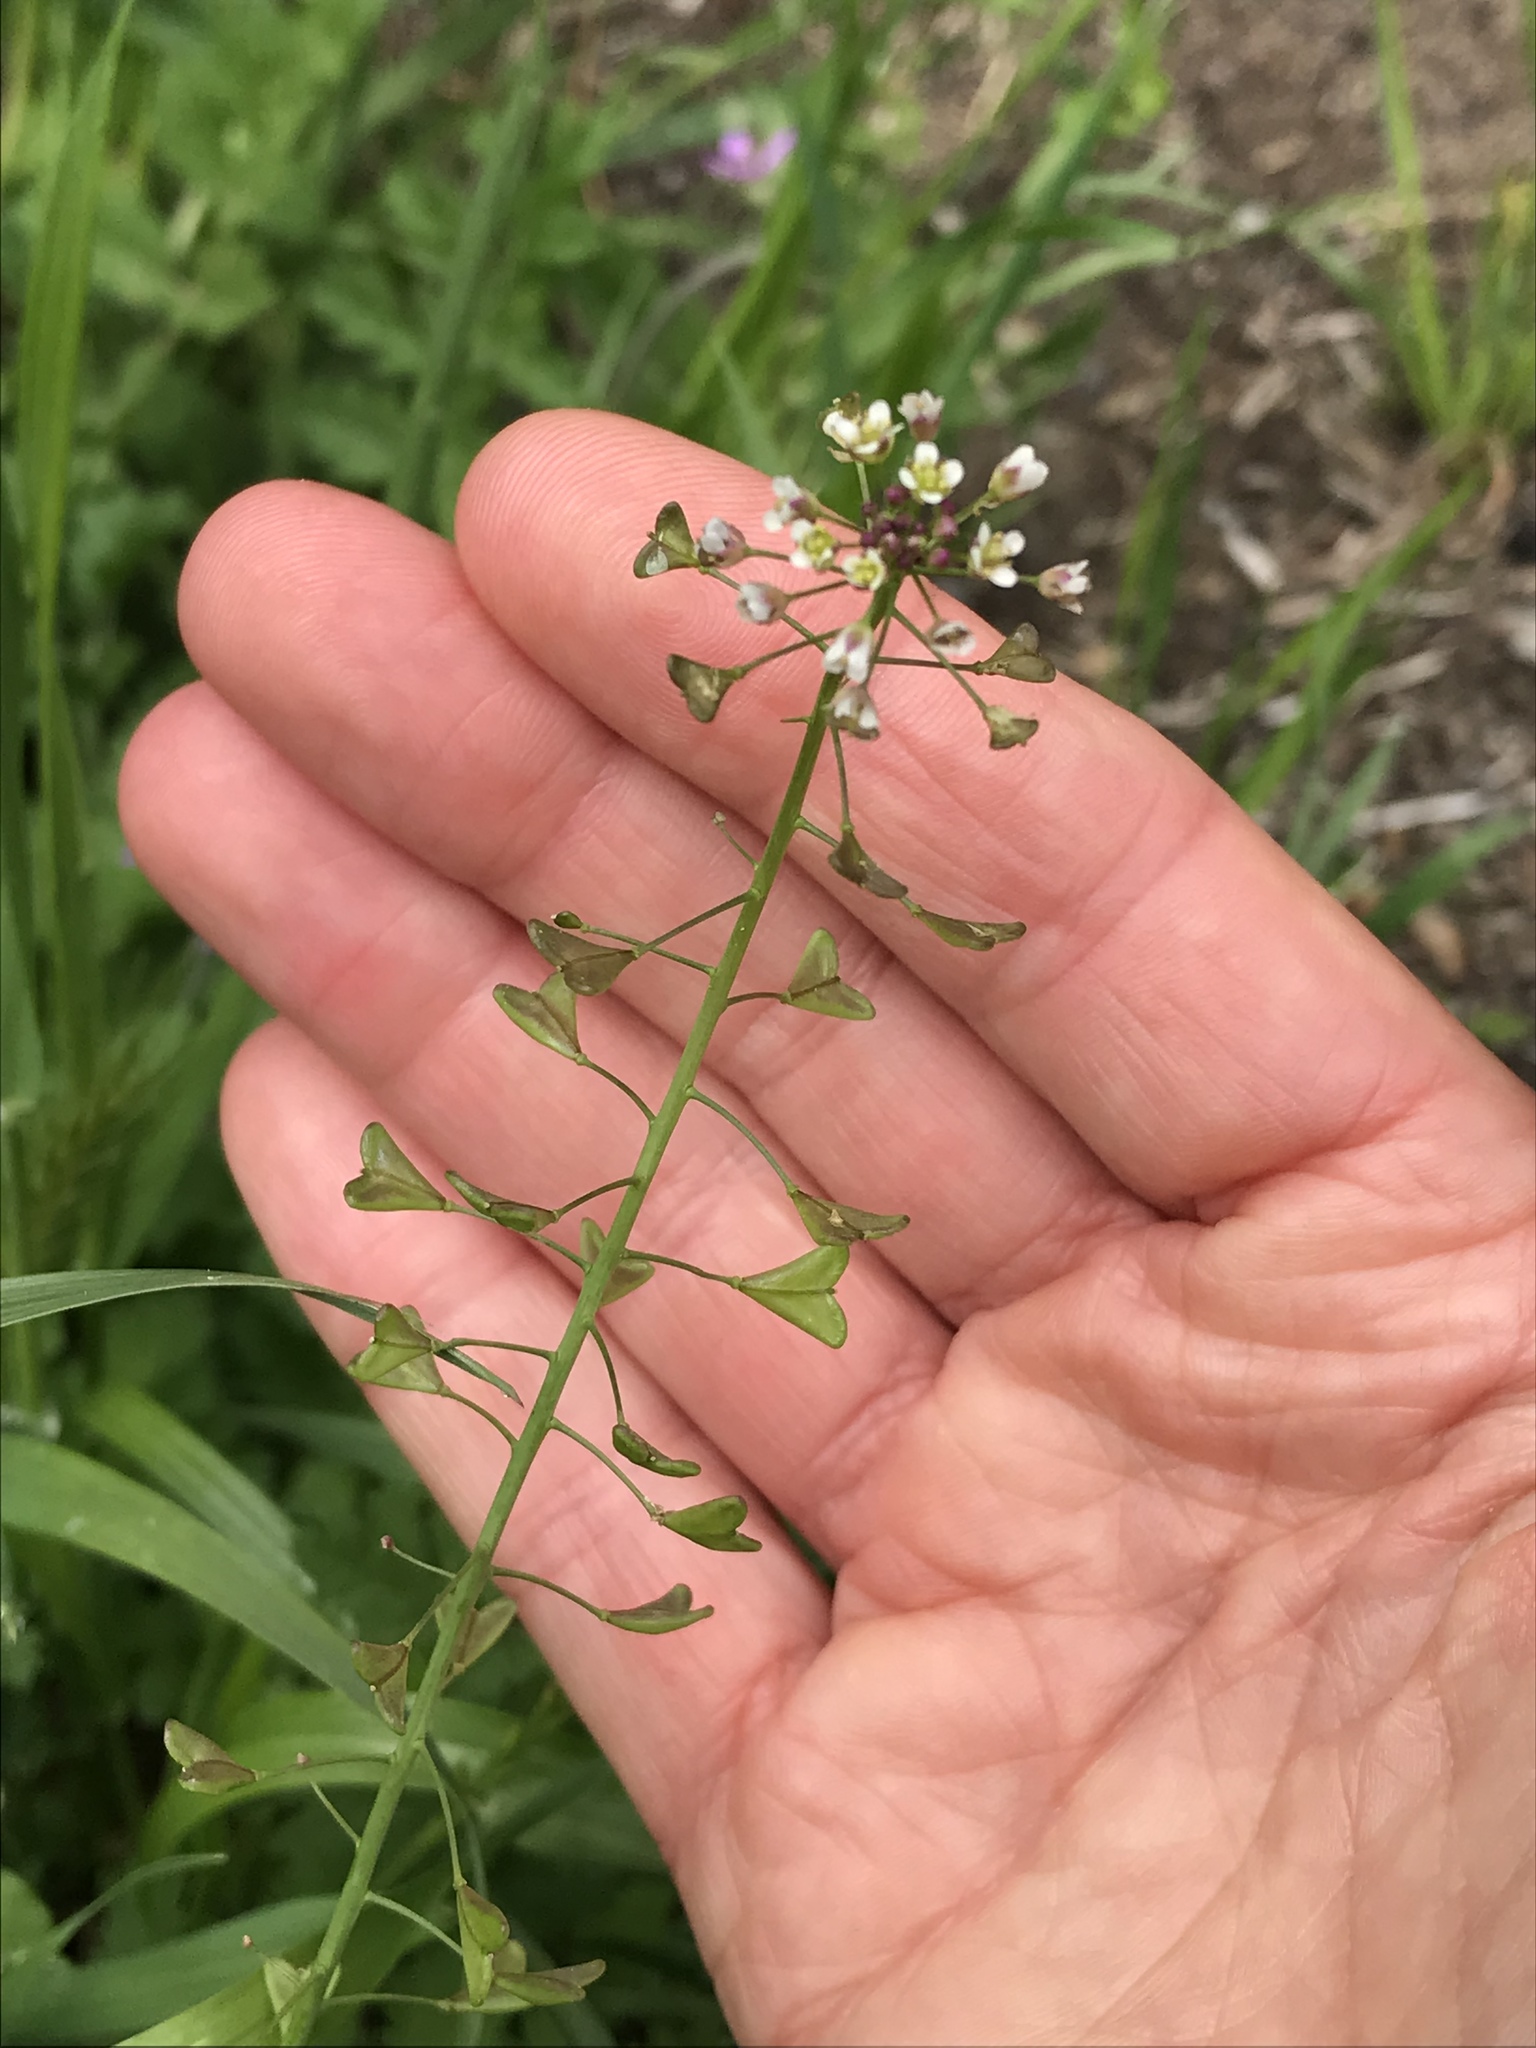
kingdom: Plantae
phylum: Tracheophyta
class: Magnoliopsida
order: Brassicales
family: Brassicaceae
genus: Capsella
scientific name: Capsella bursa-pastoris
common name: Shepherd's purse
